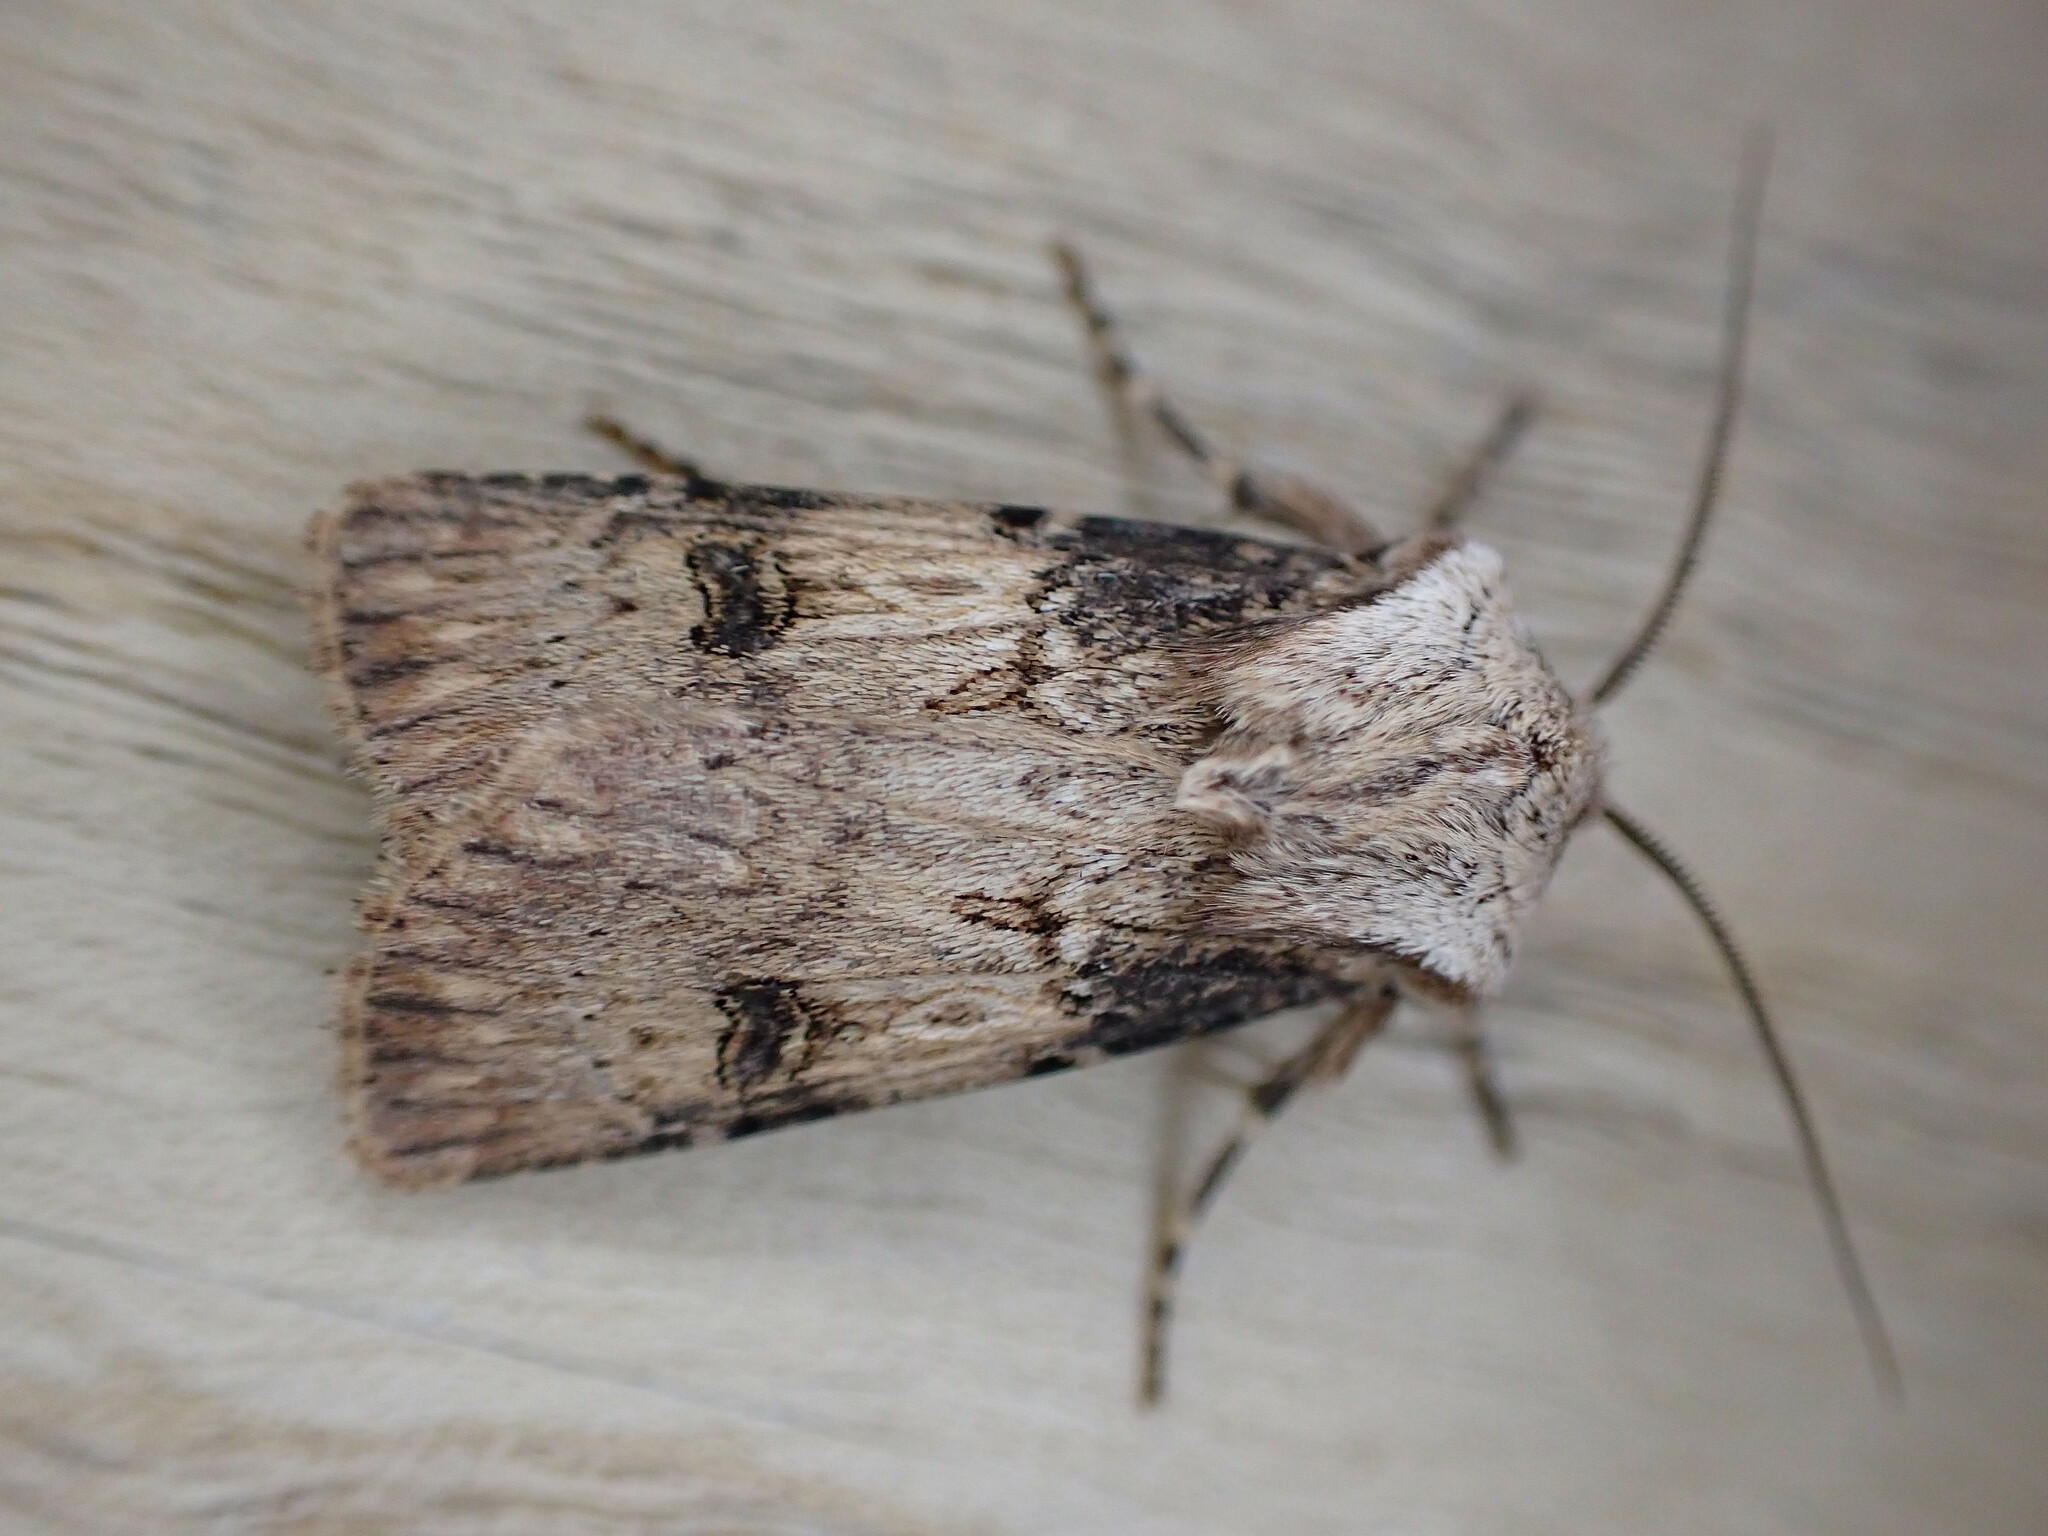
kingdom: Animalia
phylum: Arthropoda
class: Insecta
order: Lepidoptera
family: Noctuidae
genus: Agrotis
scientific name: Agrotis puta
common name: Shuttle-shaped dart
